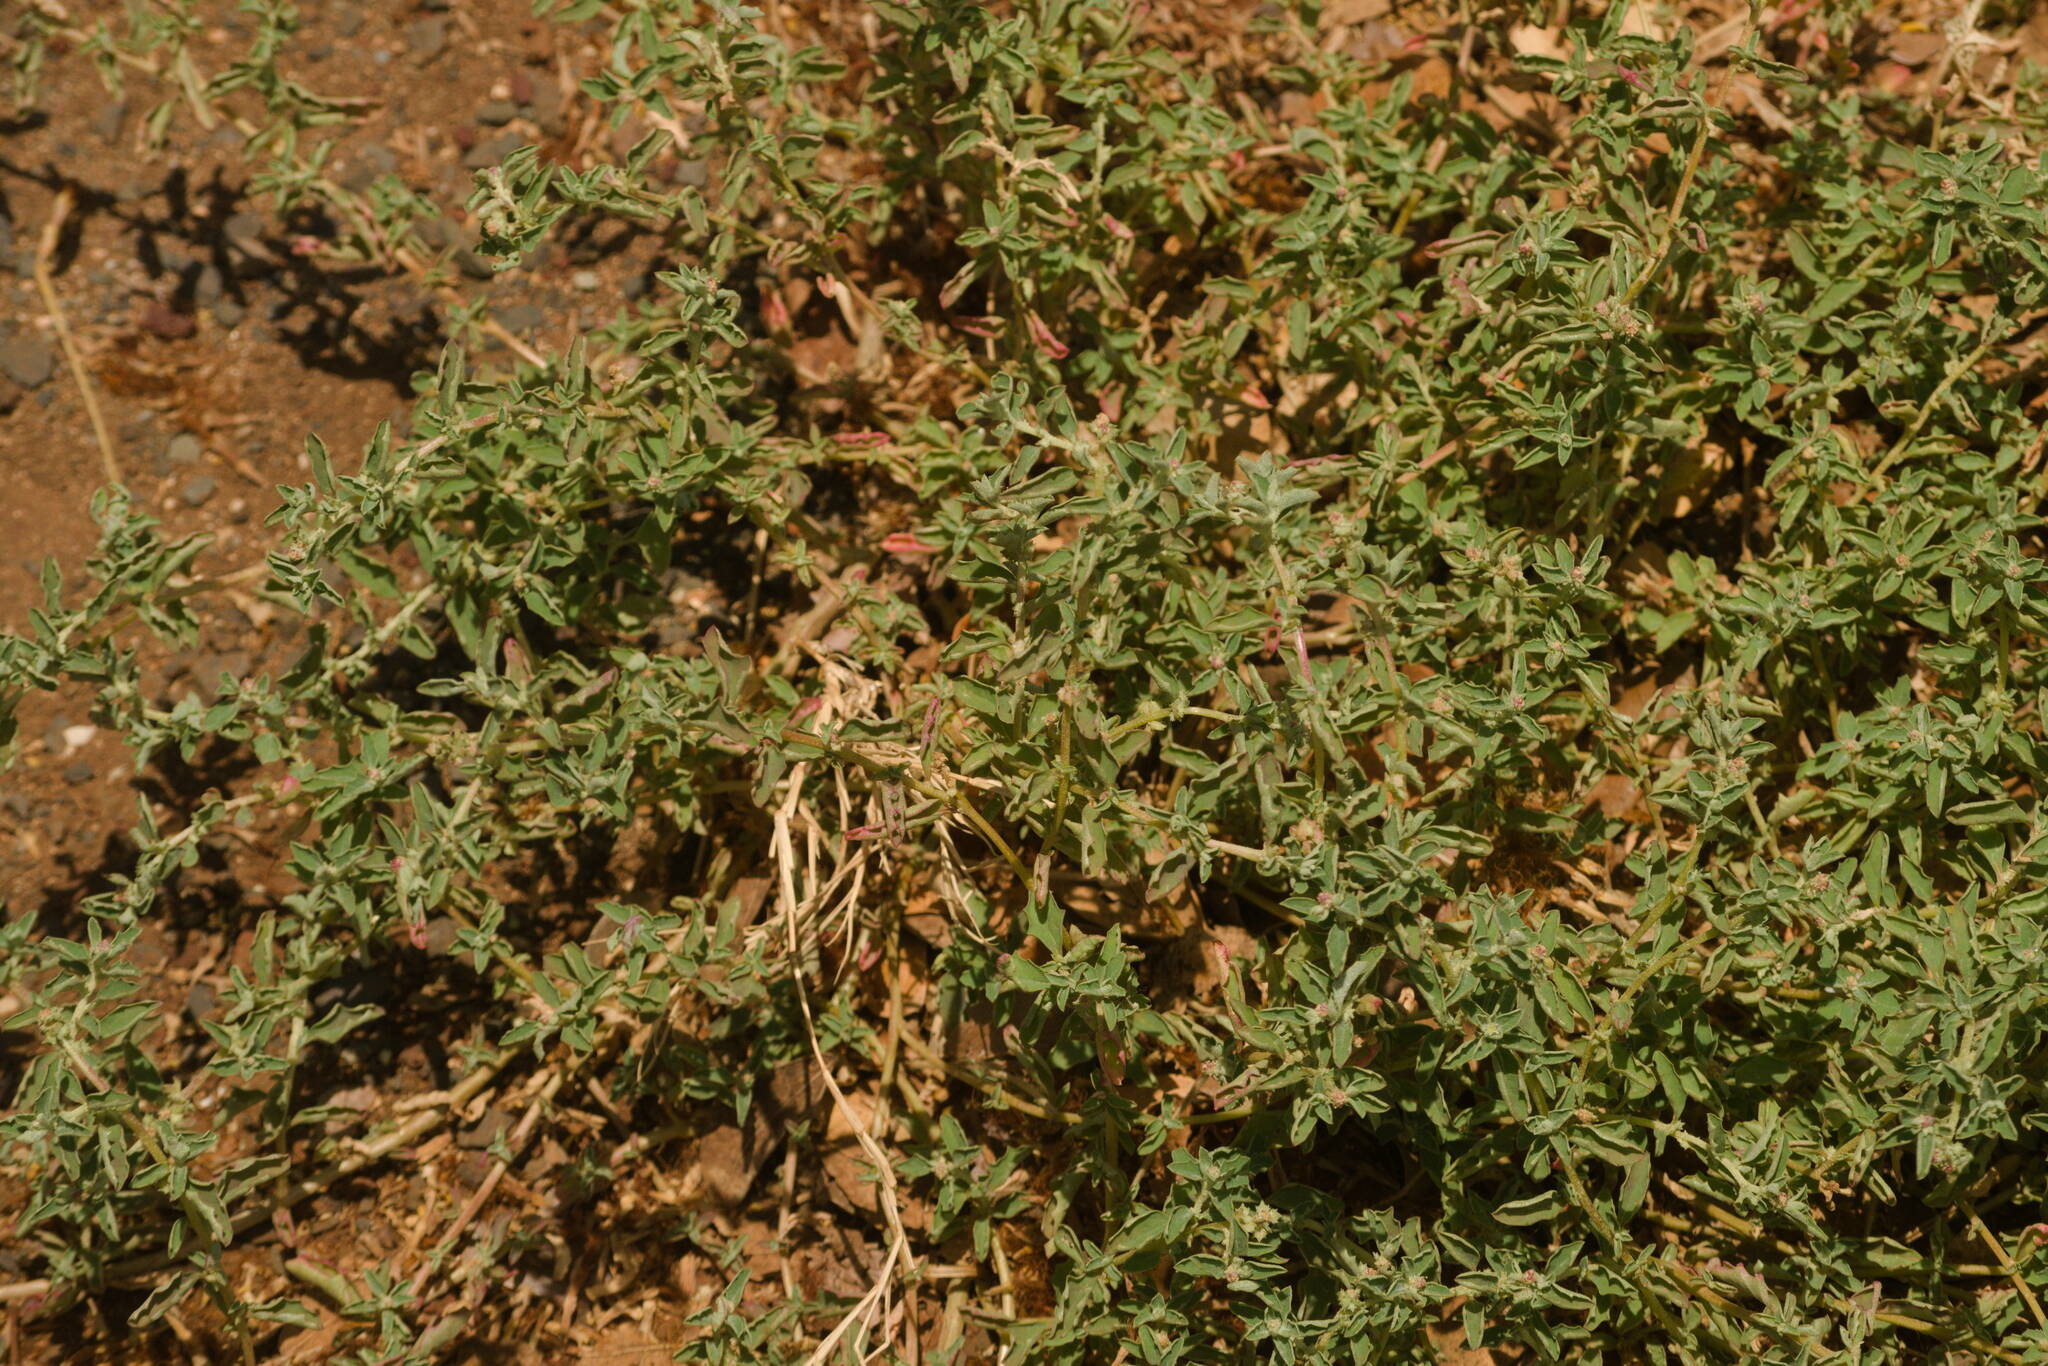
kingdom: Plantae
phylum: Tracheophyta
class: Magnoliopsida
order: Caryophyllales
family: Amaranthaceae
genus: Atriplex
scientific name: Atriplex semibaccata
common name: Australian saltbush
